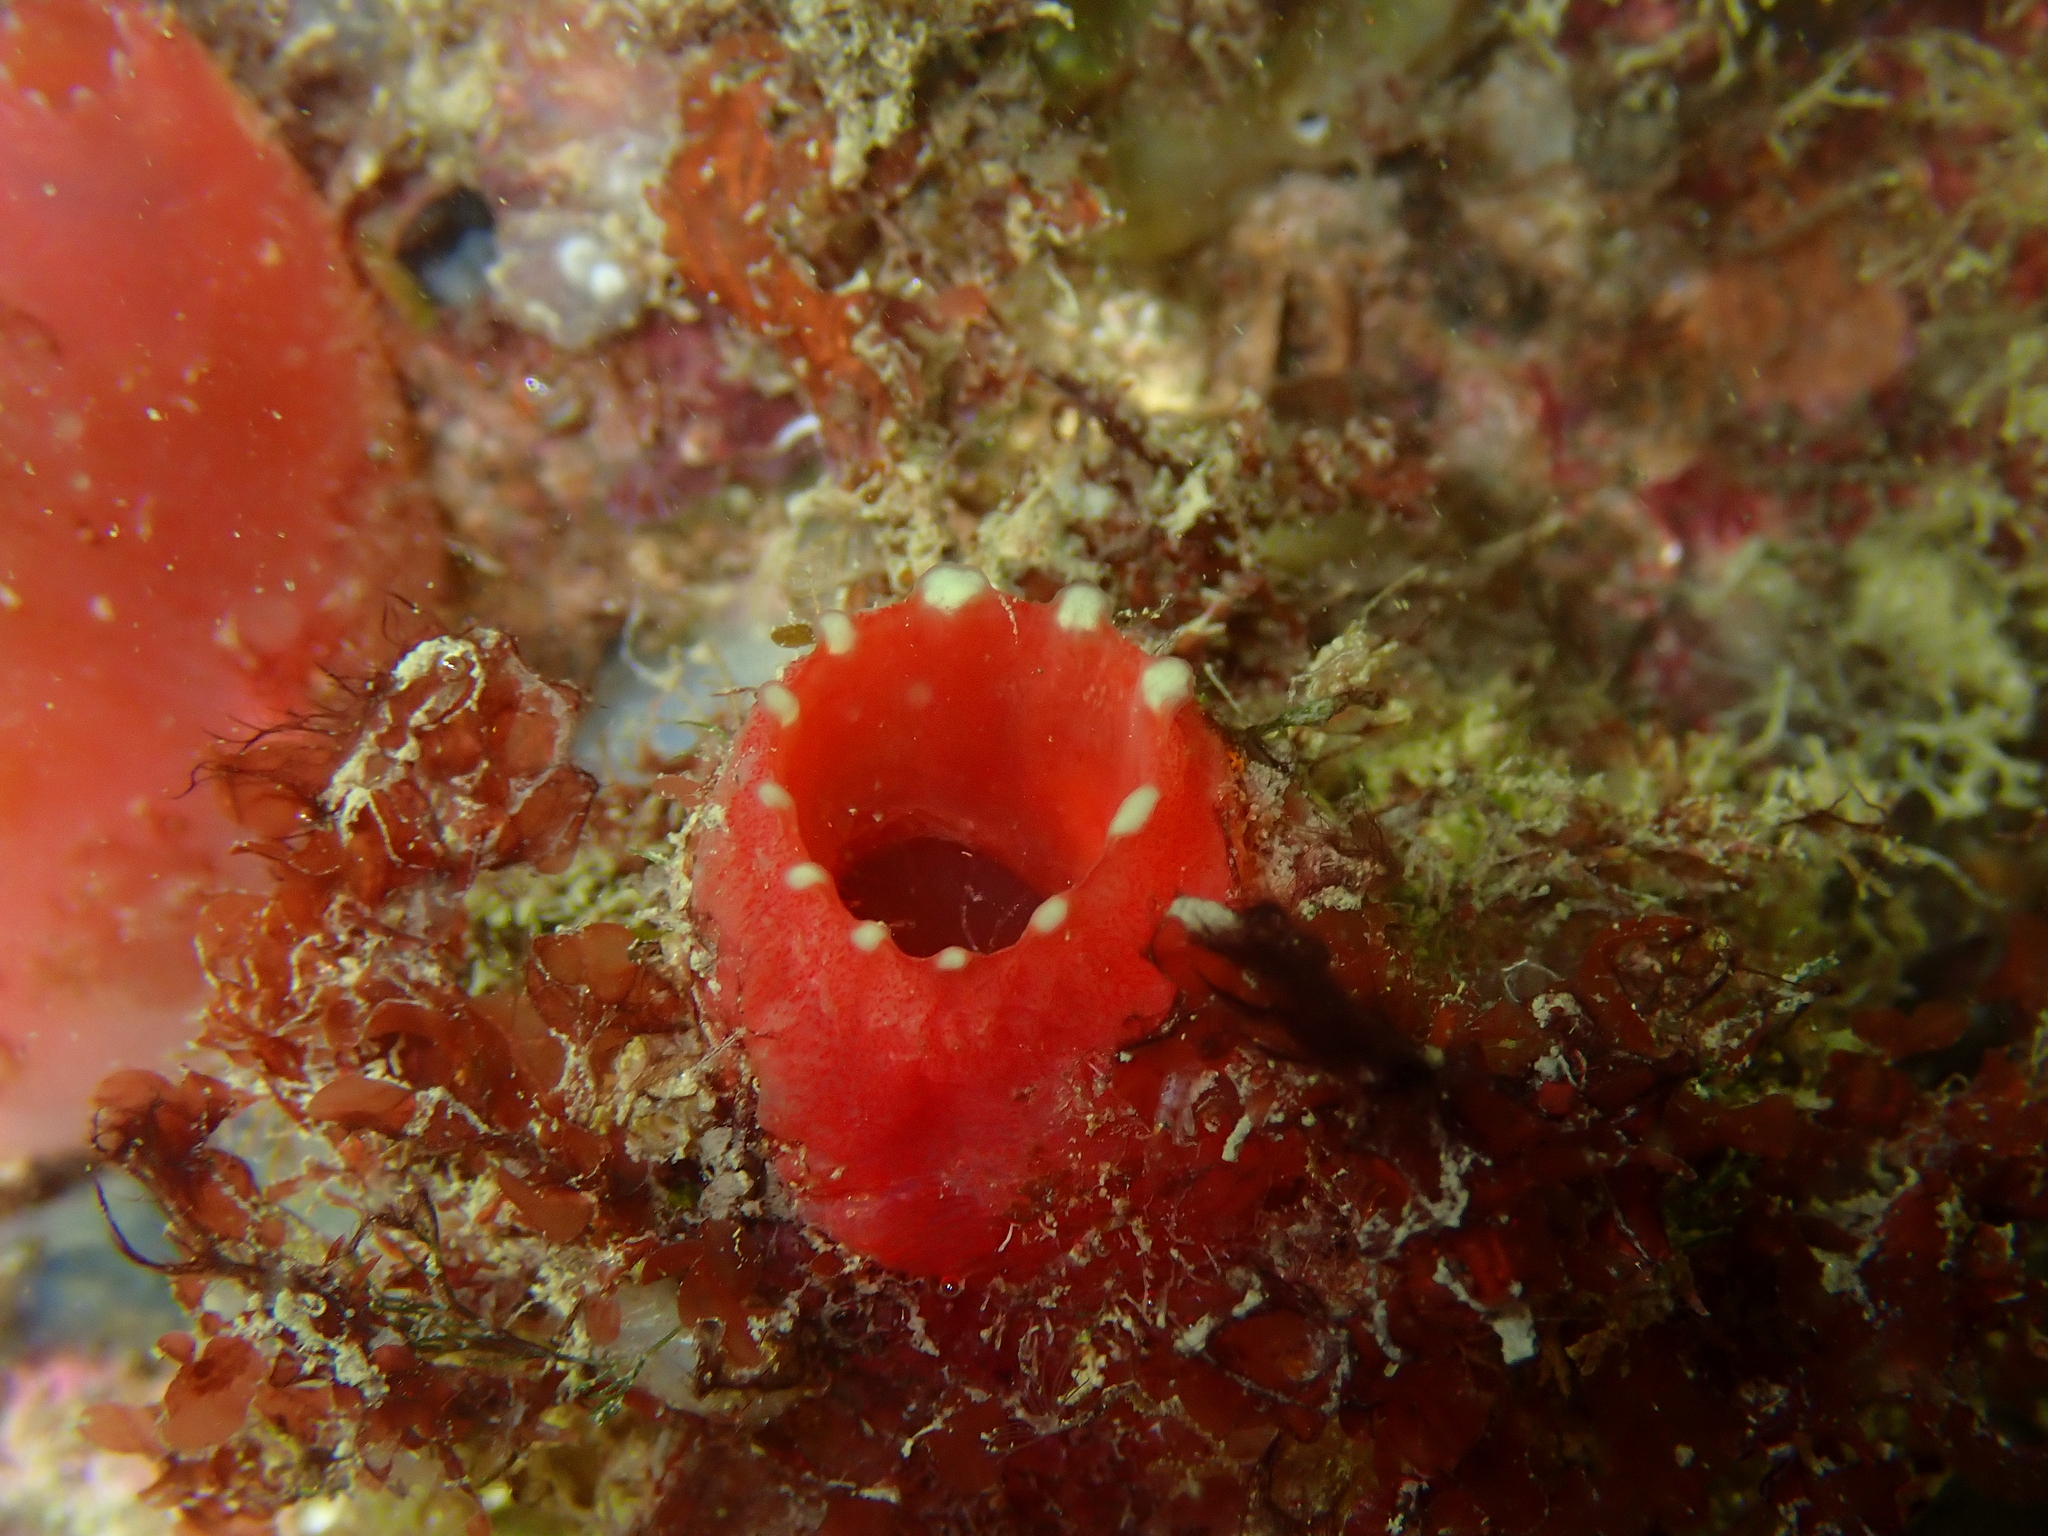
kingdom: Animalia
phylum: Chordata
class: Ascidiacea
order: Phlebobranchia
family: Ascidiidae
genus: Ascidia
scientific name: Ascidia mentula
